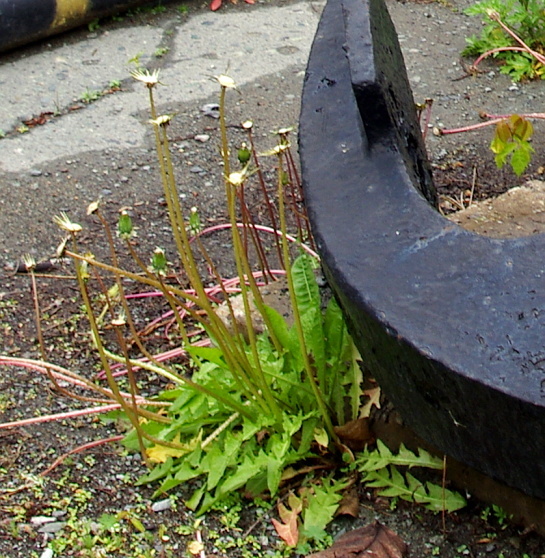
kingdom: Plantae
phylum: Tracheophyta
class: Magnoliopsida
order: Asterales
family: Asteraceae
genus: Taraxacum
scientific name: Taraxacum officinale
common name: Common dandelion
